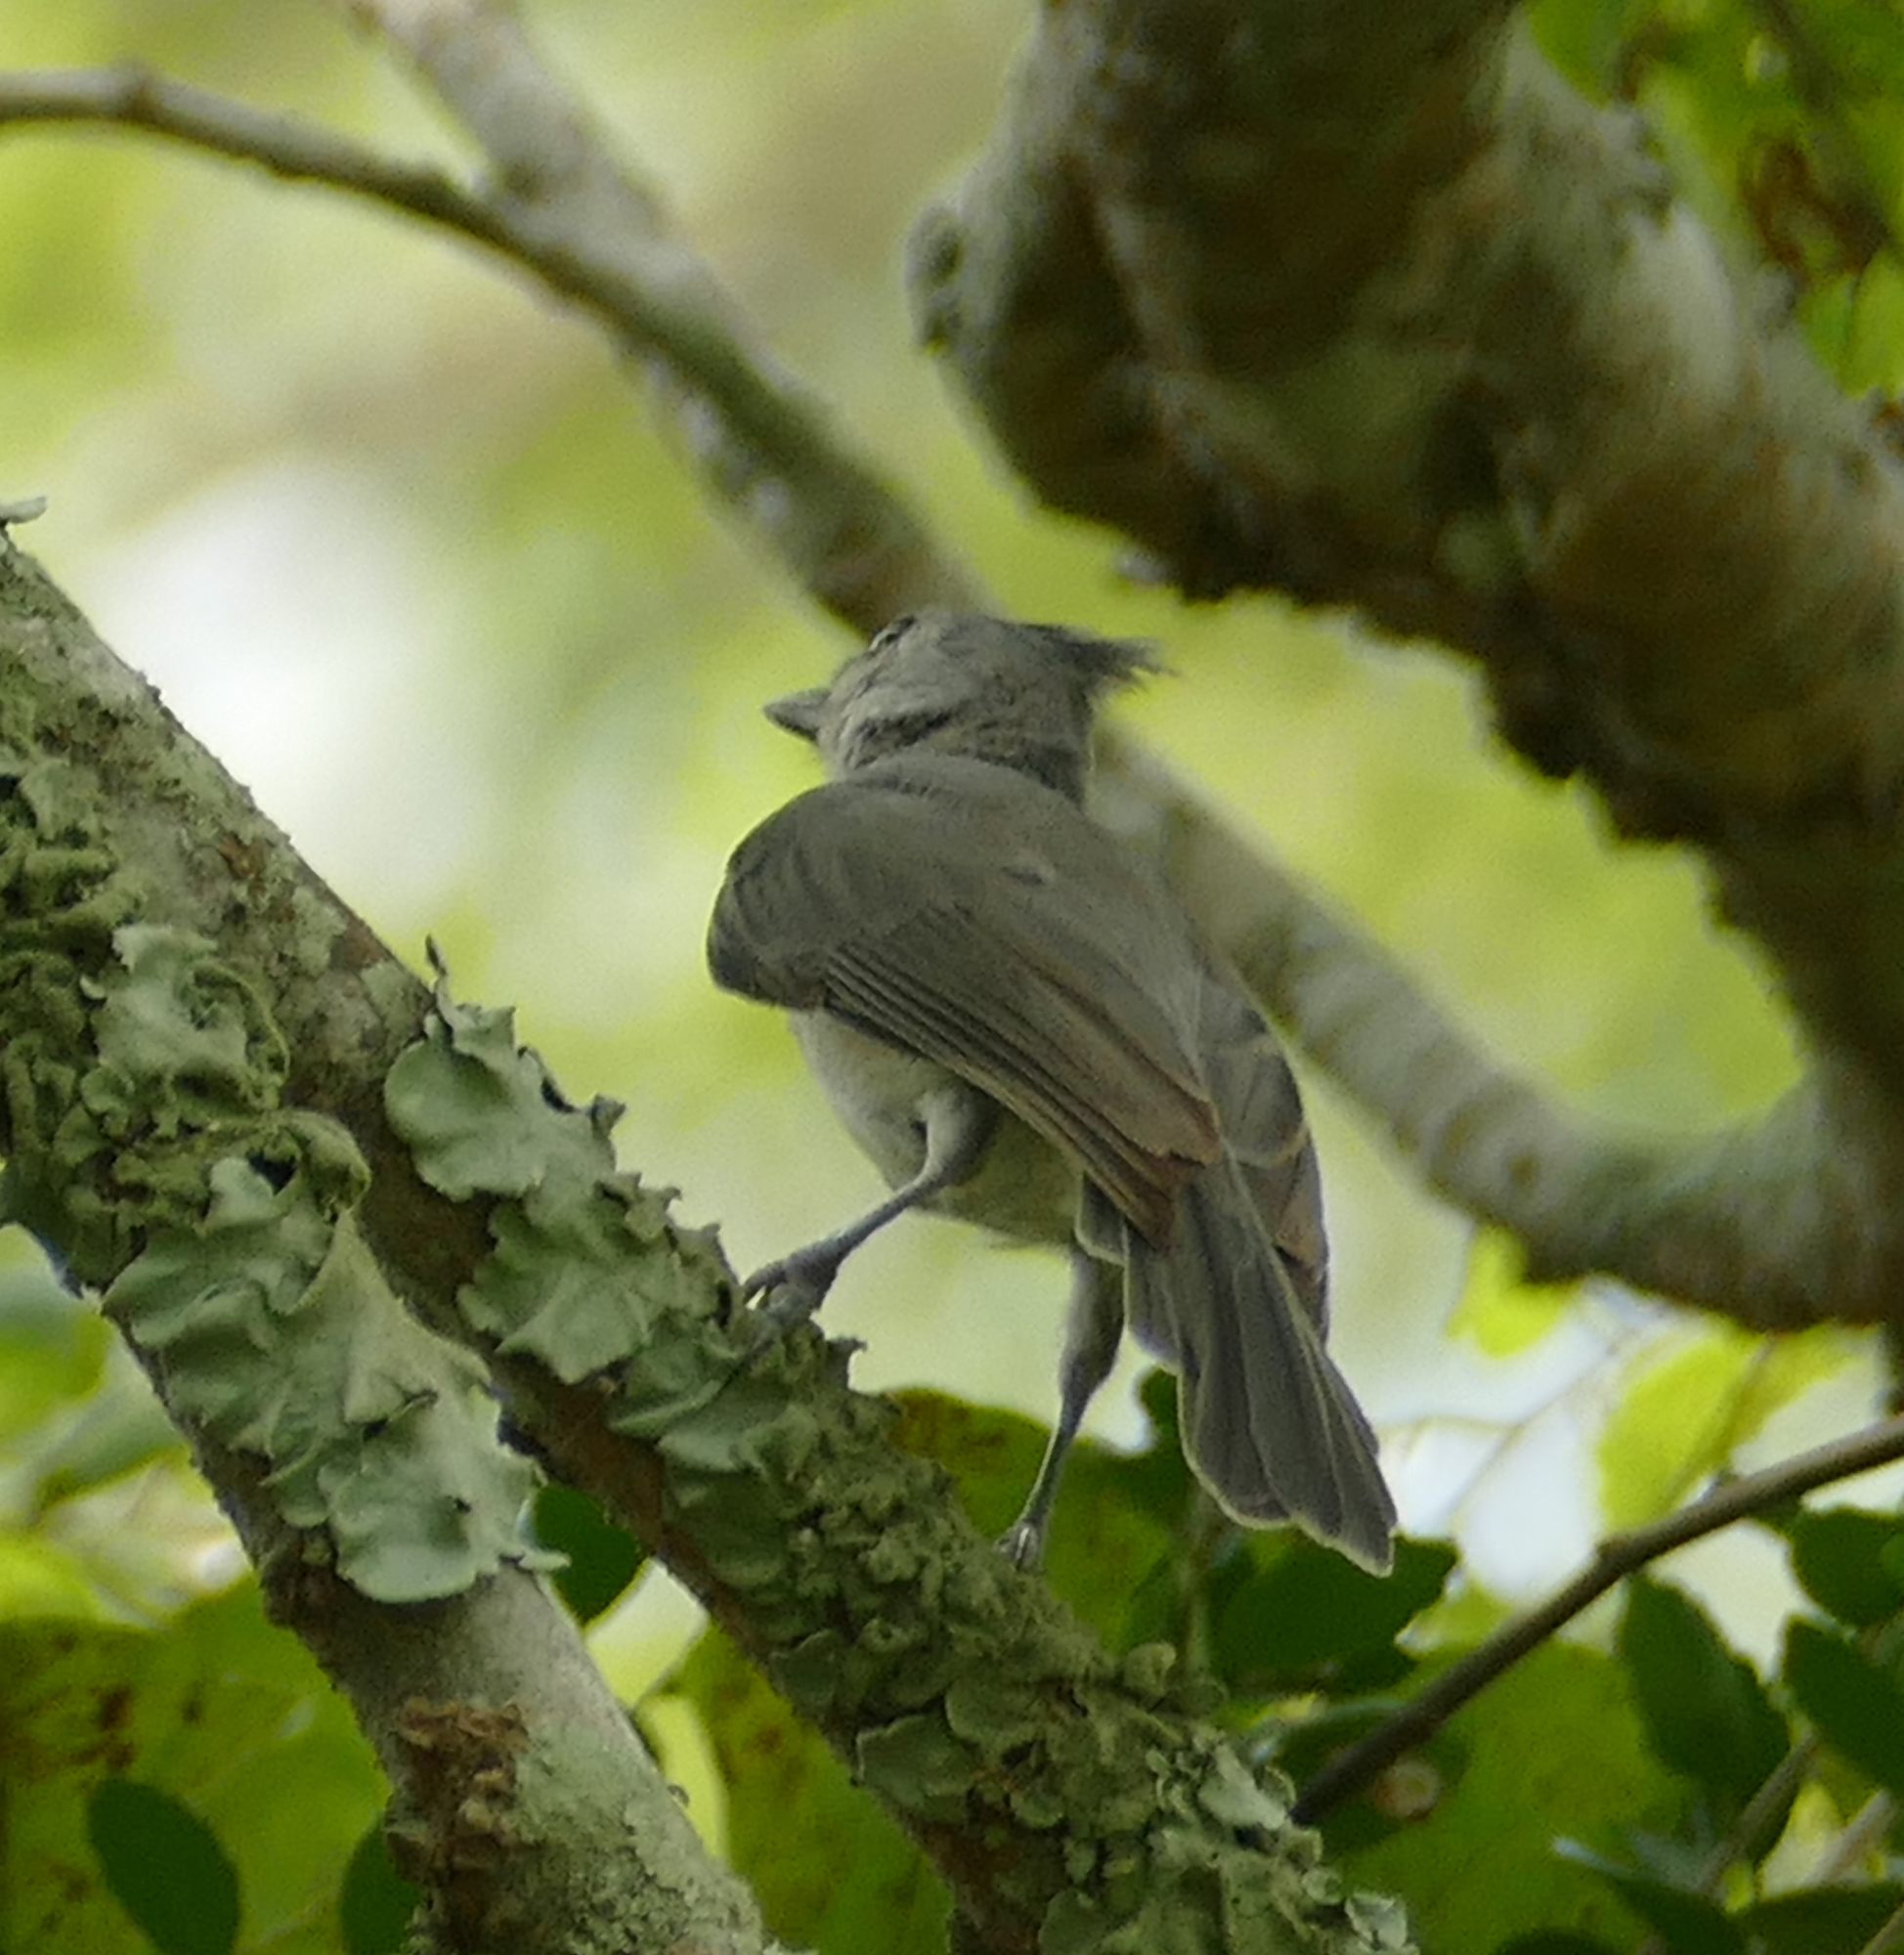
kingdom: Animalia
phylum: Chordata
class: Aves
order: Passeriformes
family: Paridae
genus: Baeolophus
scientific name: Baeolophus bicolor
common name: Tufted titmouse
